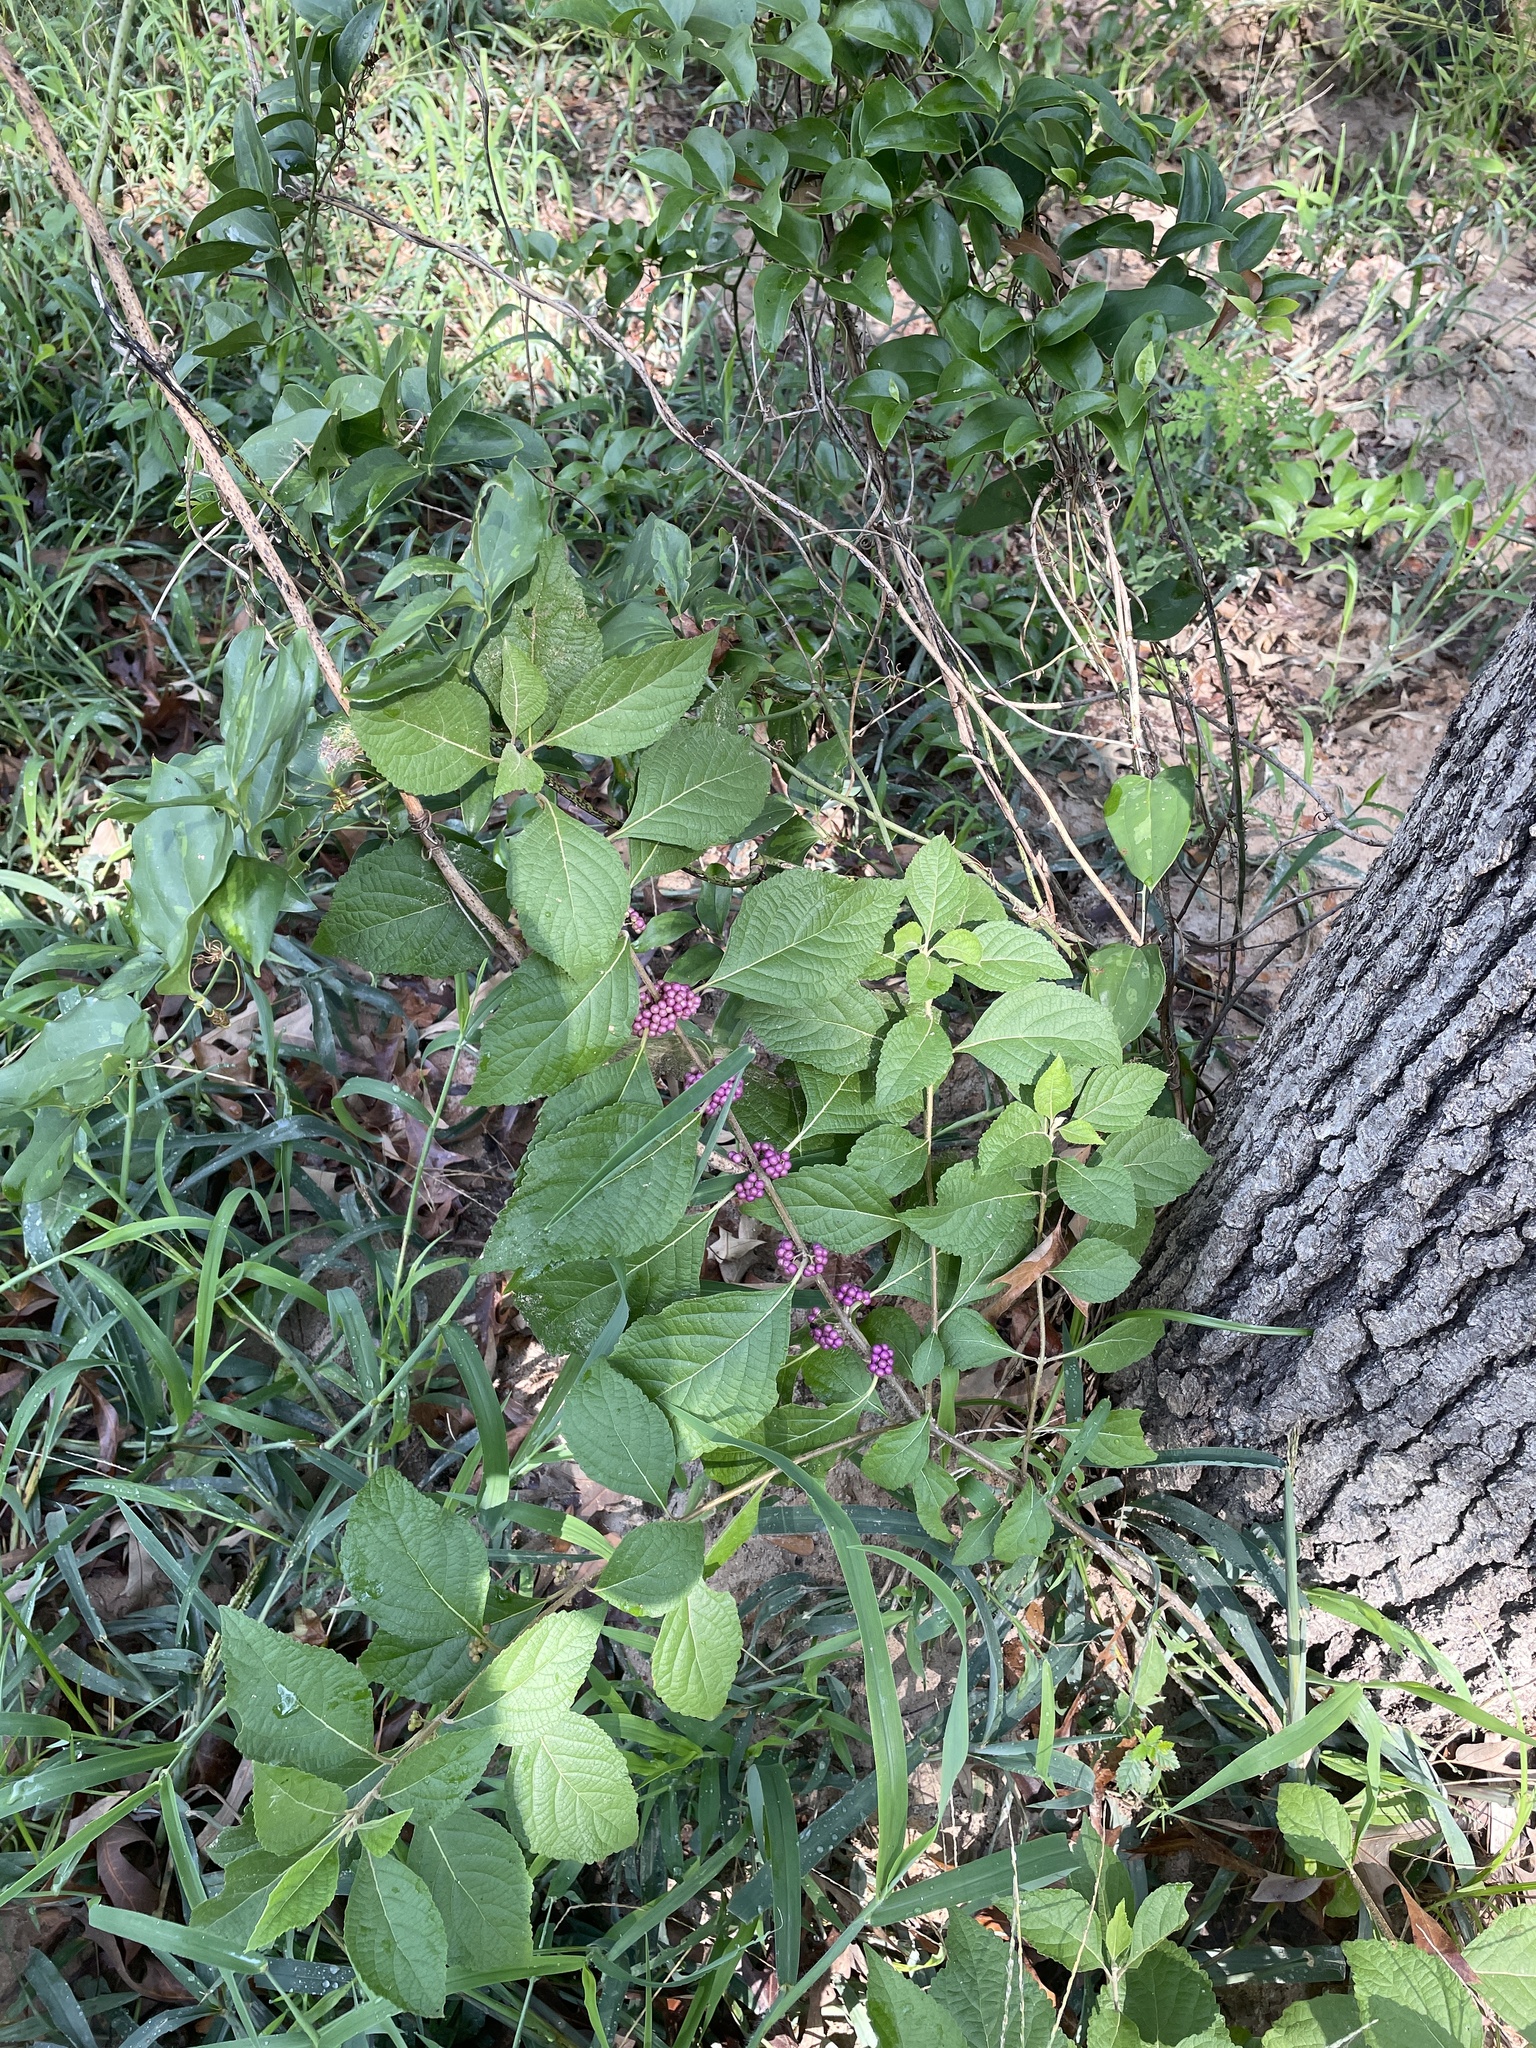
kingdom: Plantae
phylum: Tracheophyta
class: Magnoliopsida
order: Lamiales
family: Lamiaceae
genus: Callicarpa
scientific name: Callicarpa americana
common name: American beautyberry
